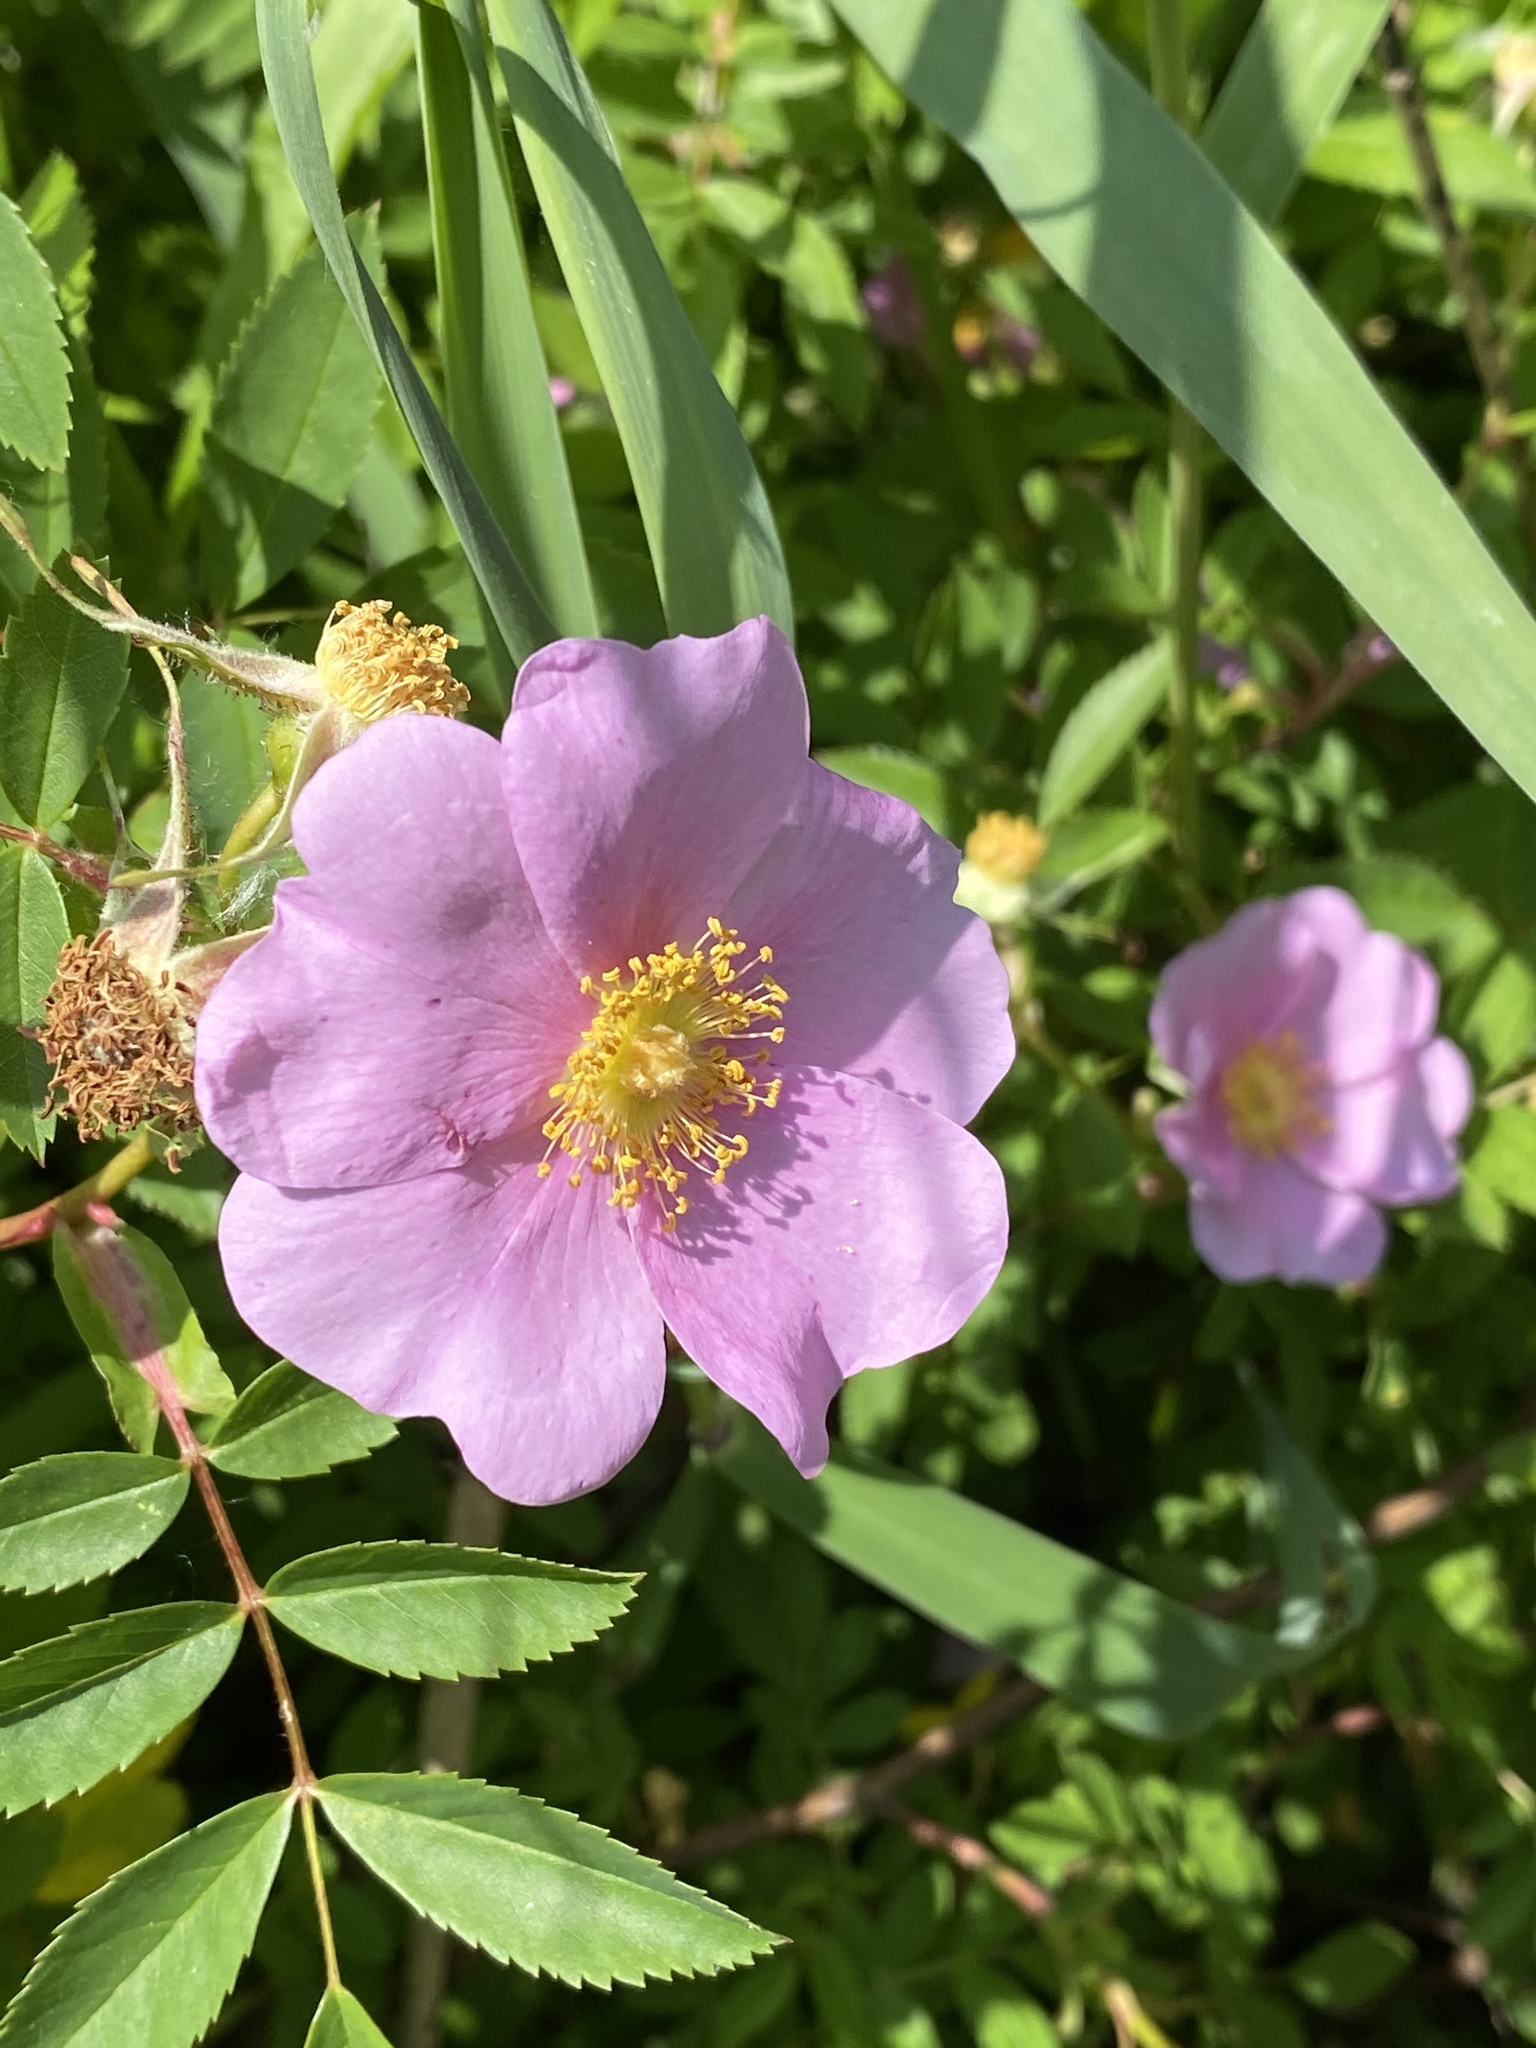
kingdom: Plantae
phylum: Tracheophyta
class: Magnoliopsida
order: Rosales
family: Rosaceae
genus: Rosa
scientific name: Rosa virginiana
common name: Virginian rose
